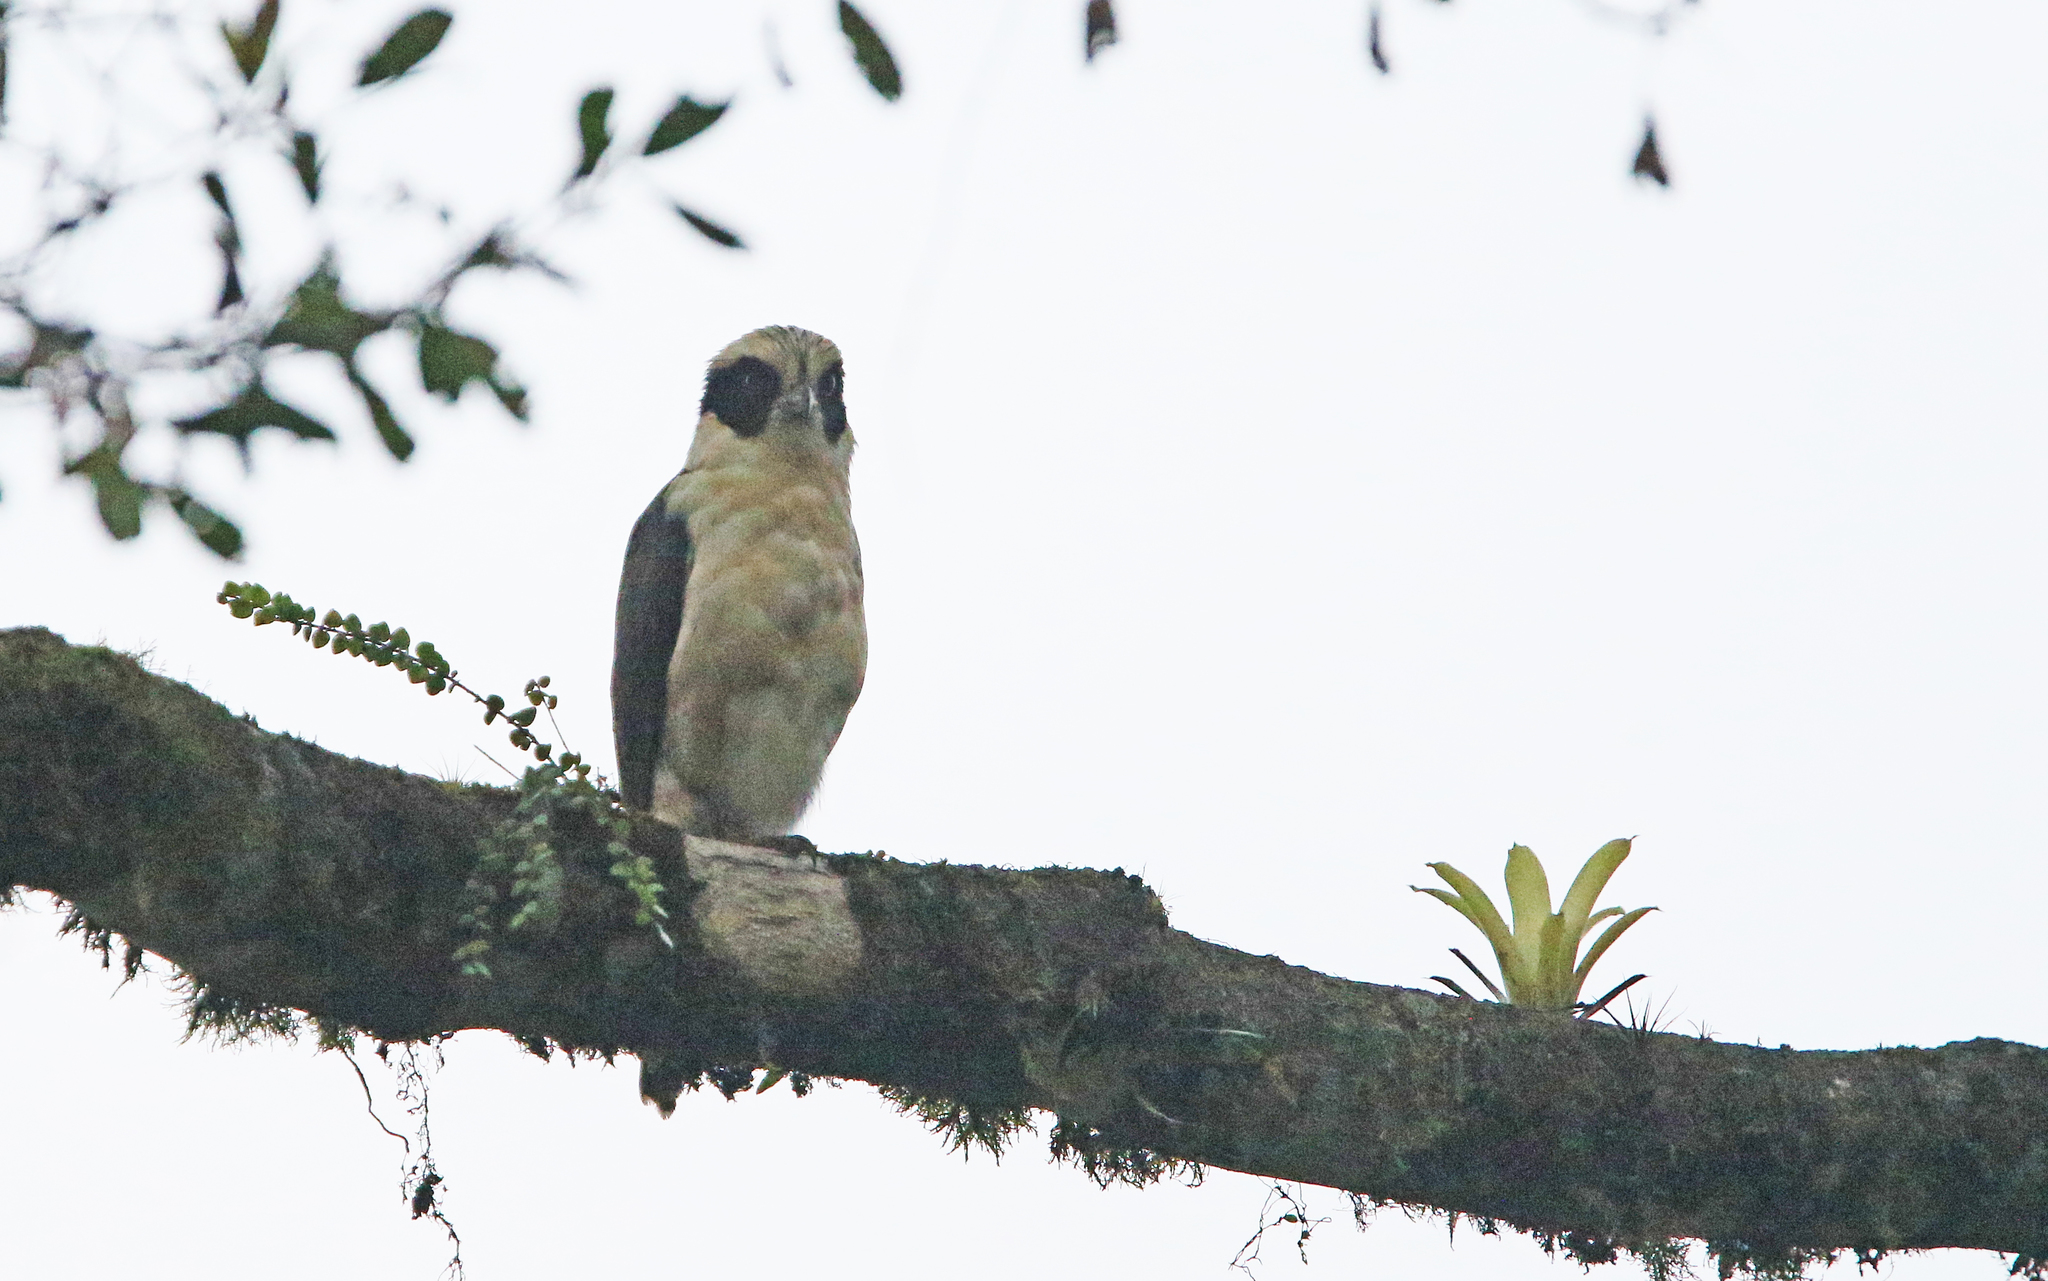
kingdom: Animalia
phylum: Chordata
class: Aves
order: Falconiformes
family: Falconidae
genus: Herpetotheres
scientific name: Herpetotheres cachinnans
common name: Laughing falcon
